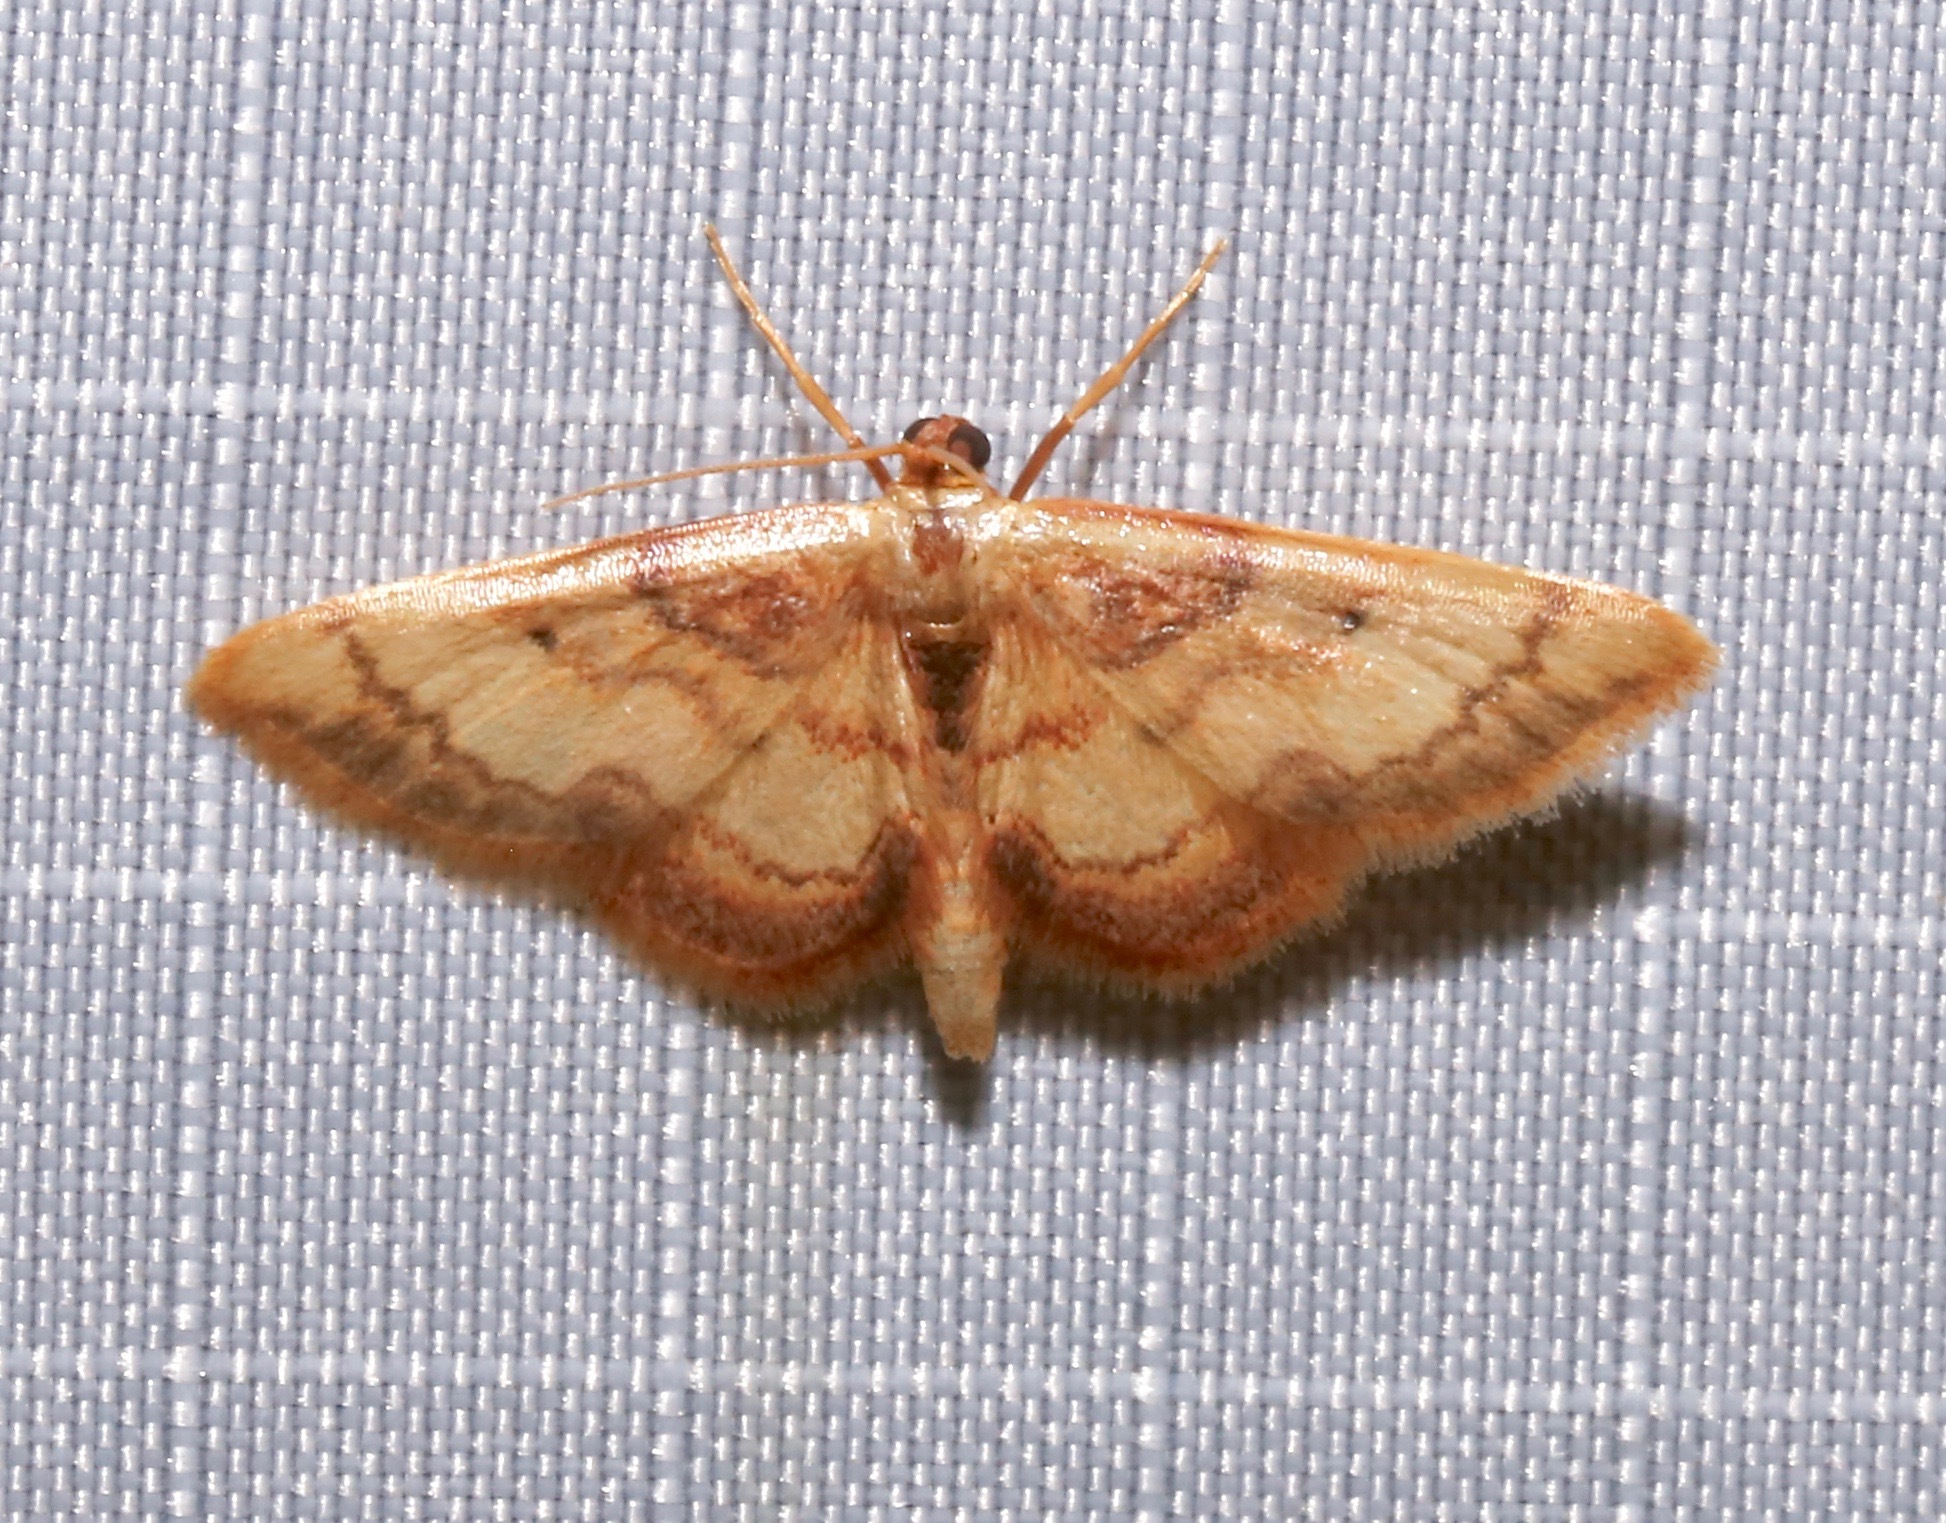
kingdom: Animalia
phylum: Arthropoda
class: Insecta
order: Lepidoptera
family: Geometridae
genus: Idaea
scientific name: Idaea demissaria
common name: Red-bordered wave
